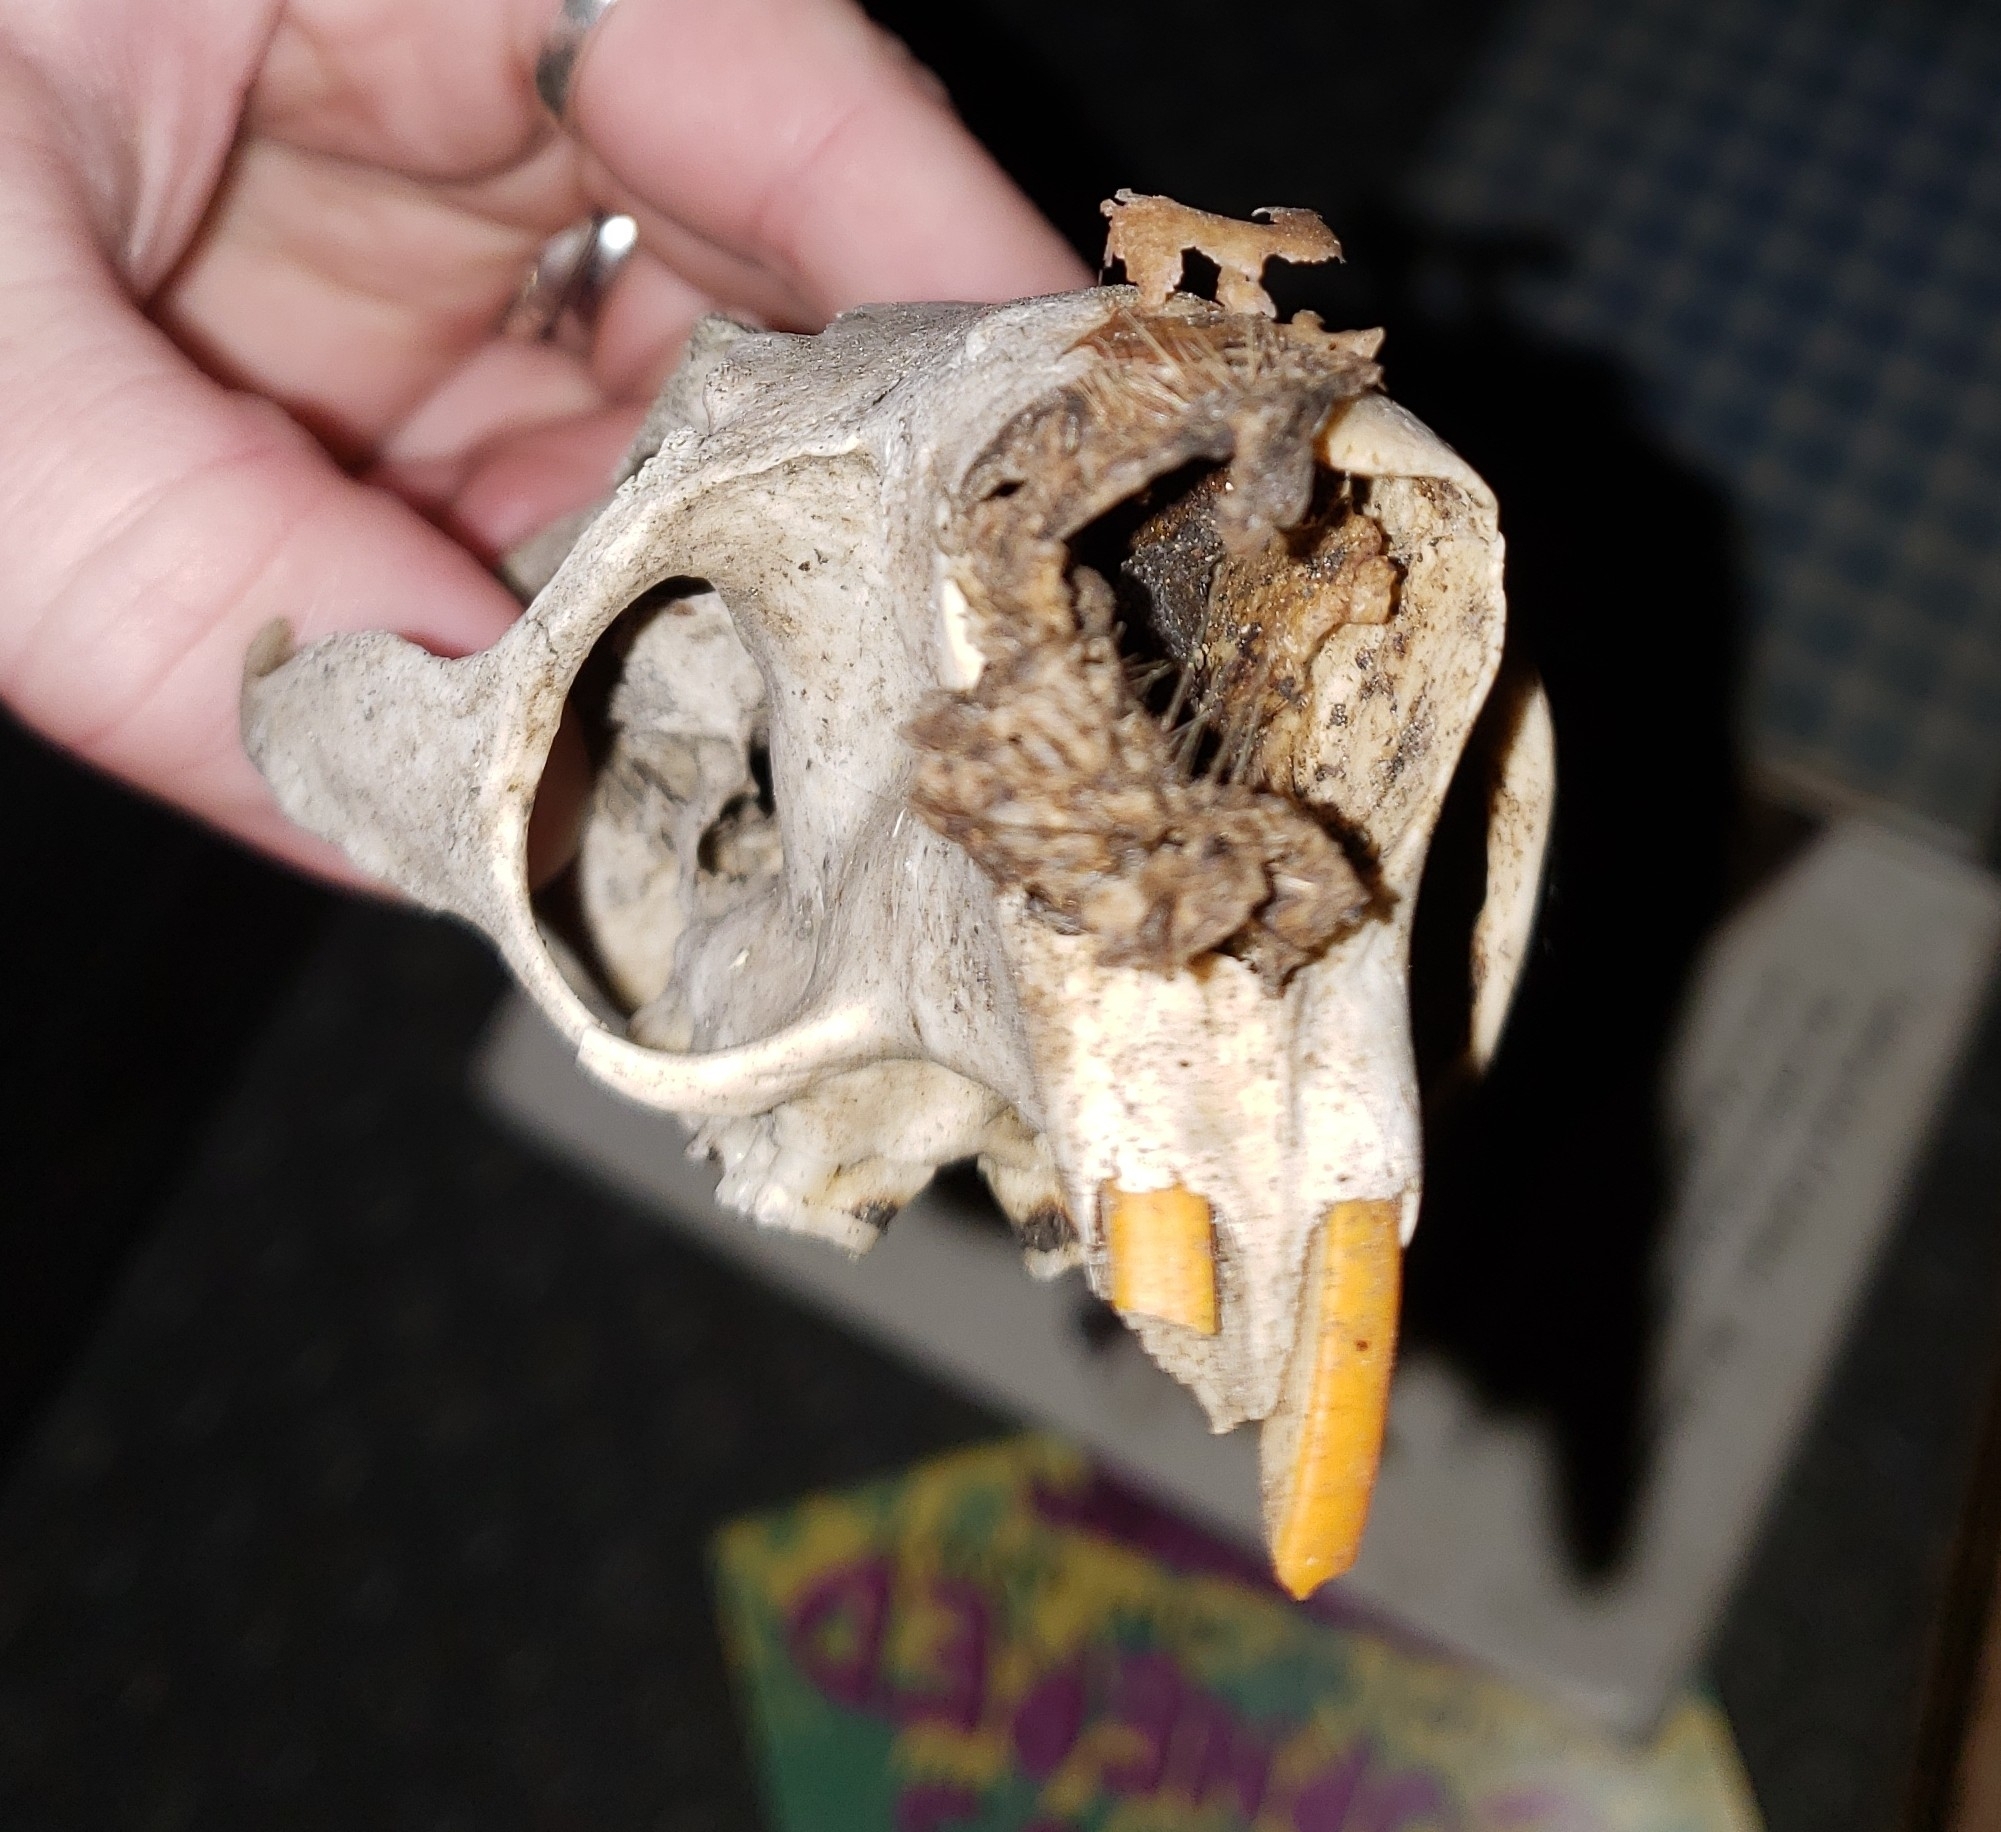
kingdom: Animalia
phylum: Chordata
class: Mammalia
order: Rodentia
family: Erethizontidae
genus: Erethizon
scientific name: Erethizon dorsatus
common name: North american porcupine
